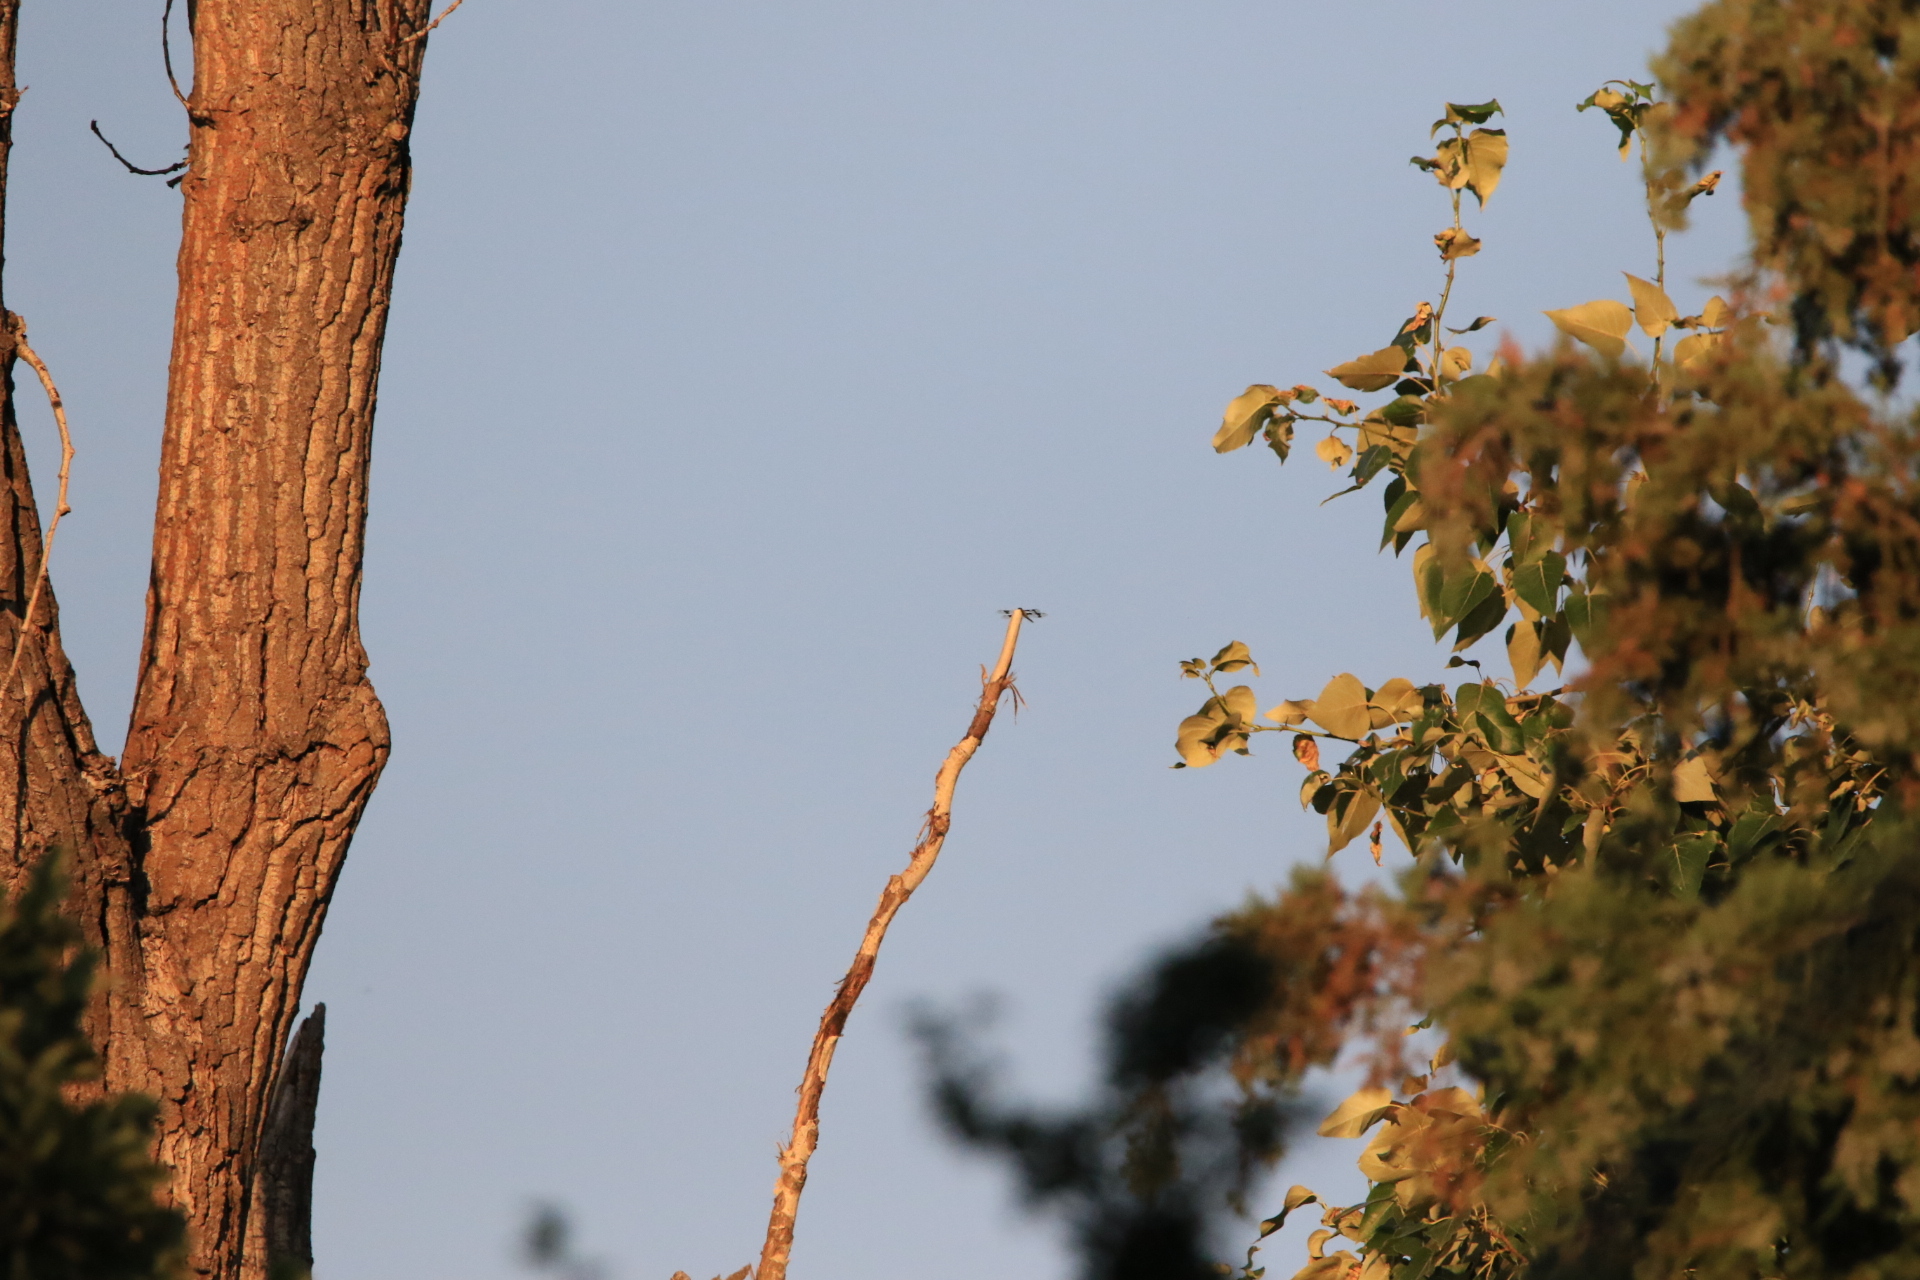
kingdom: Animalia
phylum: Arthropoda
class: Insecta
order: Odonata
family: Libellulidae
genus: Libellula
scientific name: Libellula forensis
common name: Eight-spotted skimmer
